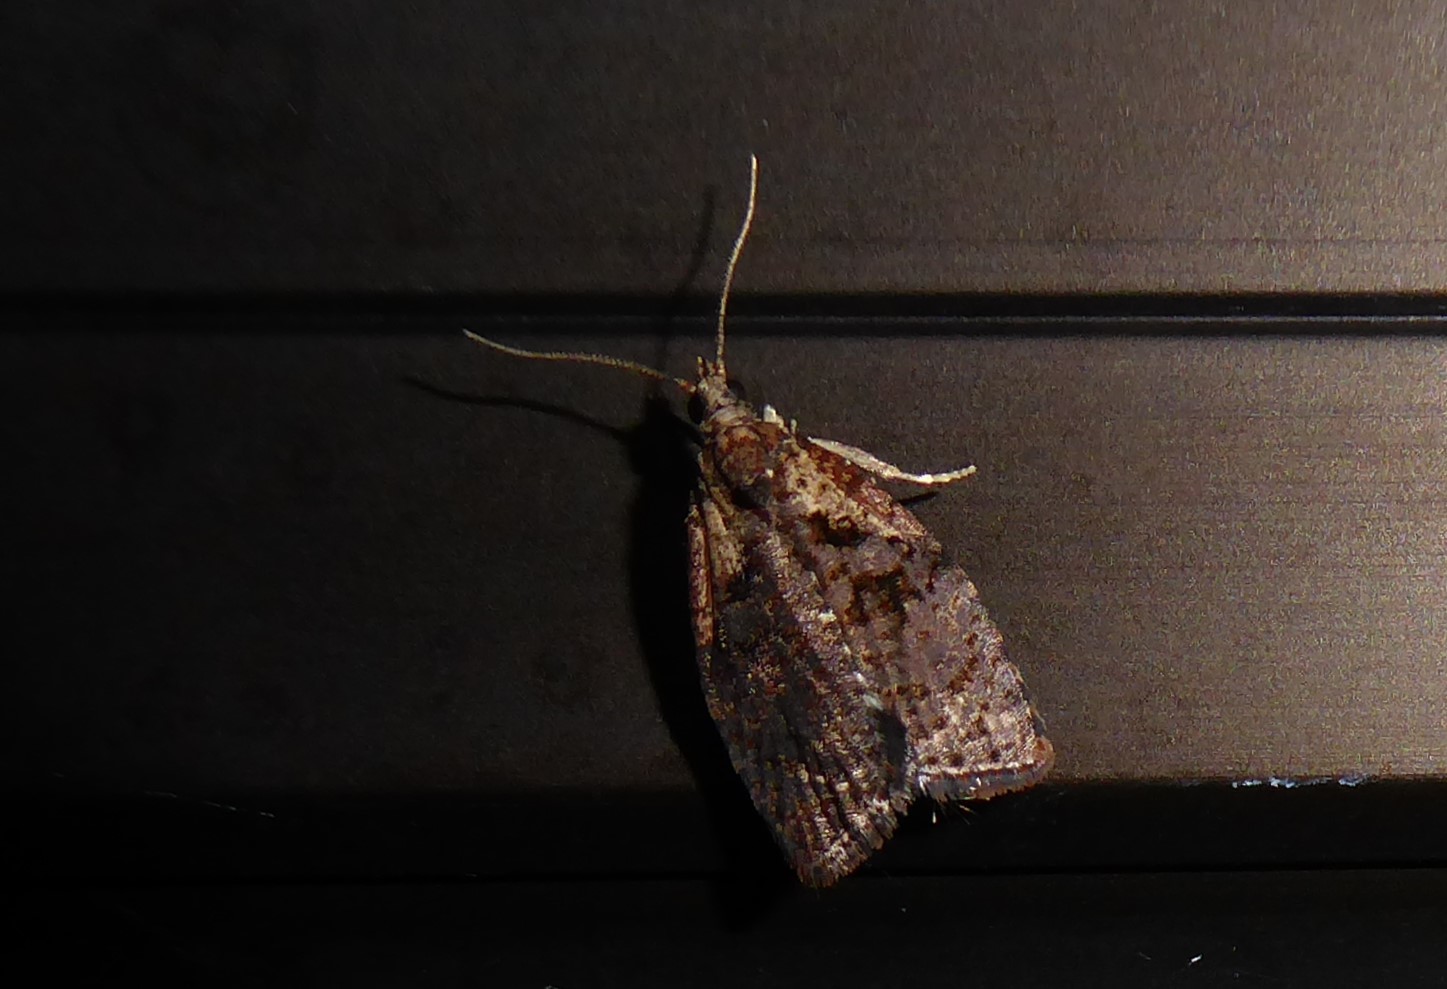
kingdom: Animalia
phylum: Arthropoda
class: Insecta
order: Lepidoptera
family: Tortricidae
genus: Capua
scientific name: Capua intractana
